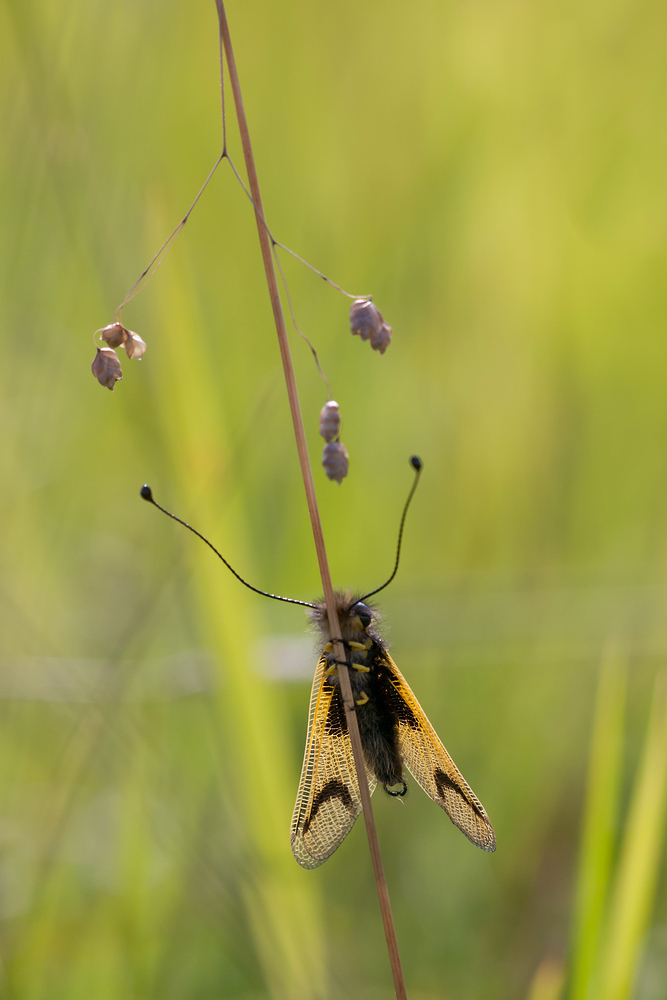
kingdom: Animalia
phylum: Arthropoda
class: Insecta
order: Neuroptera
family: Ascalaphidae
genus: Libelloides
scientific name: Libelloides longicornis
